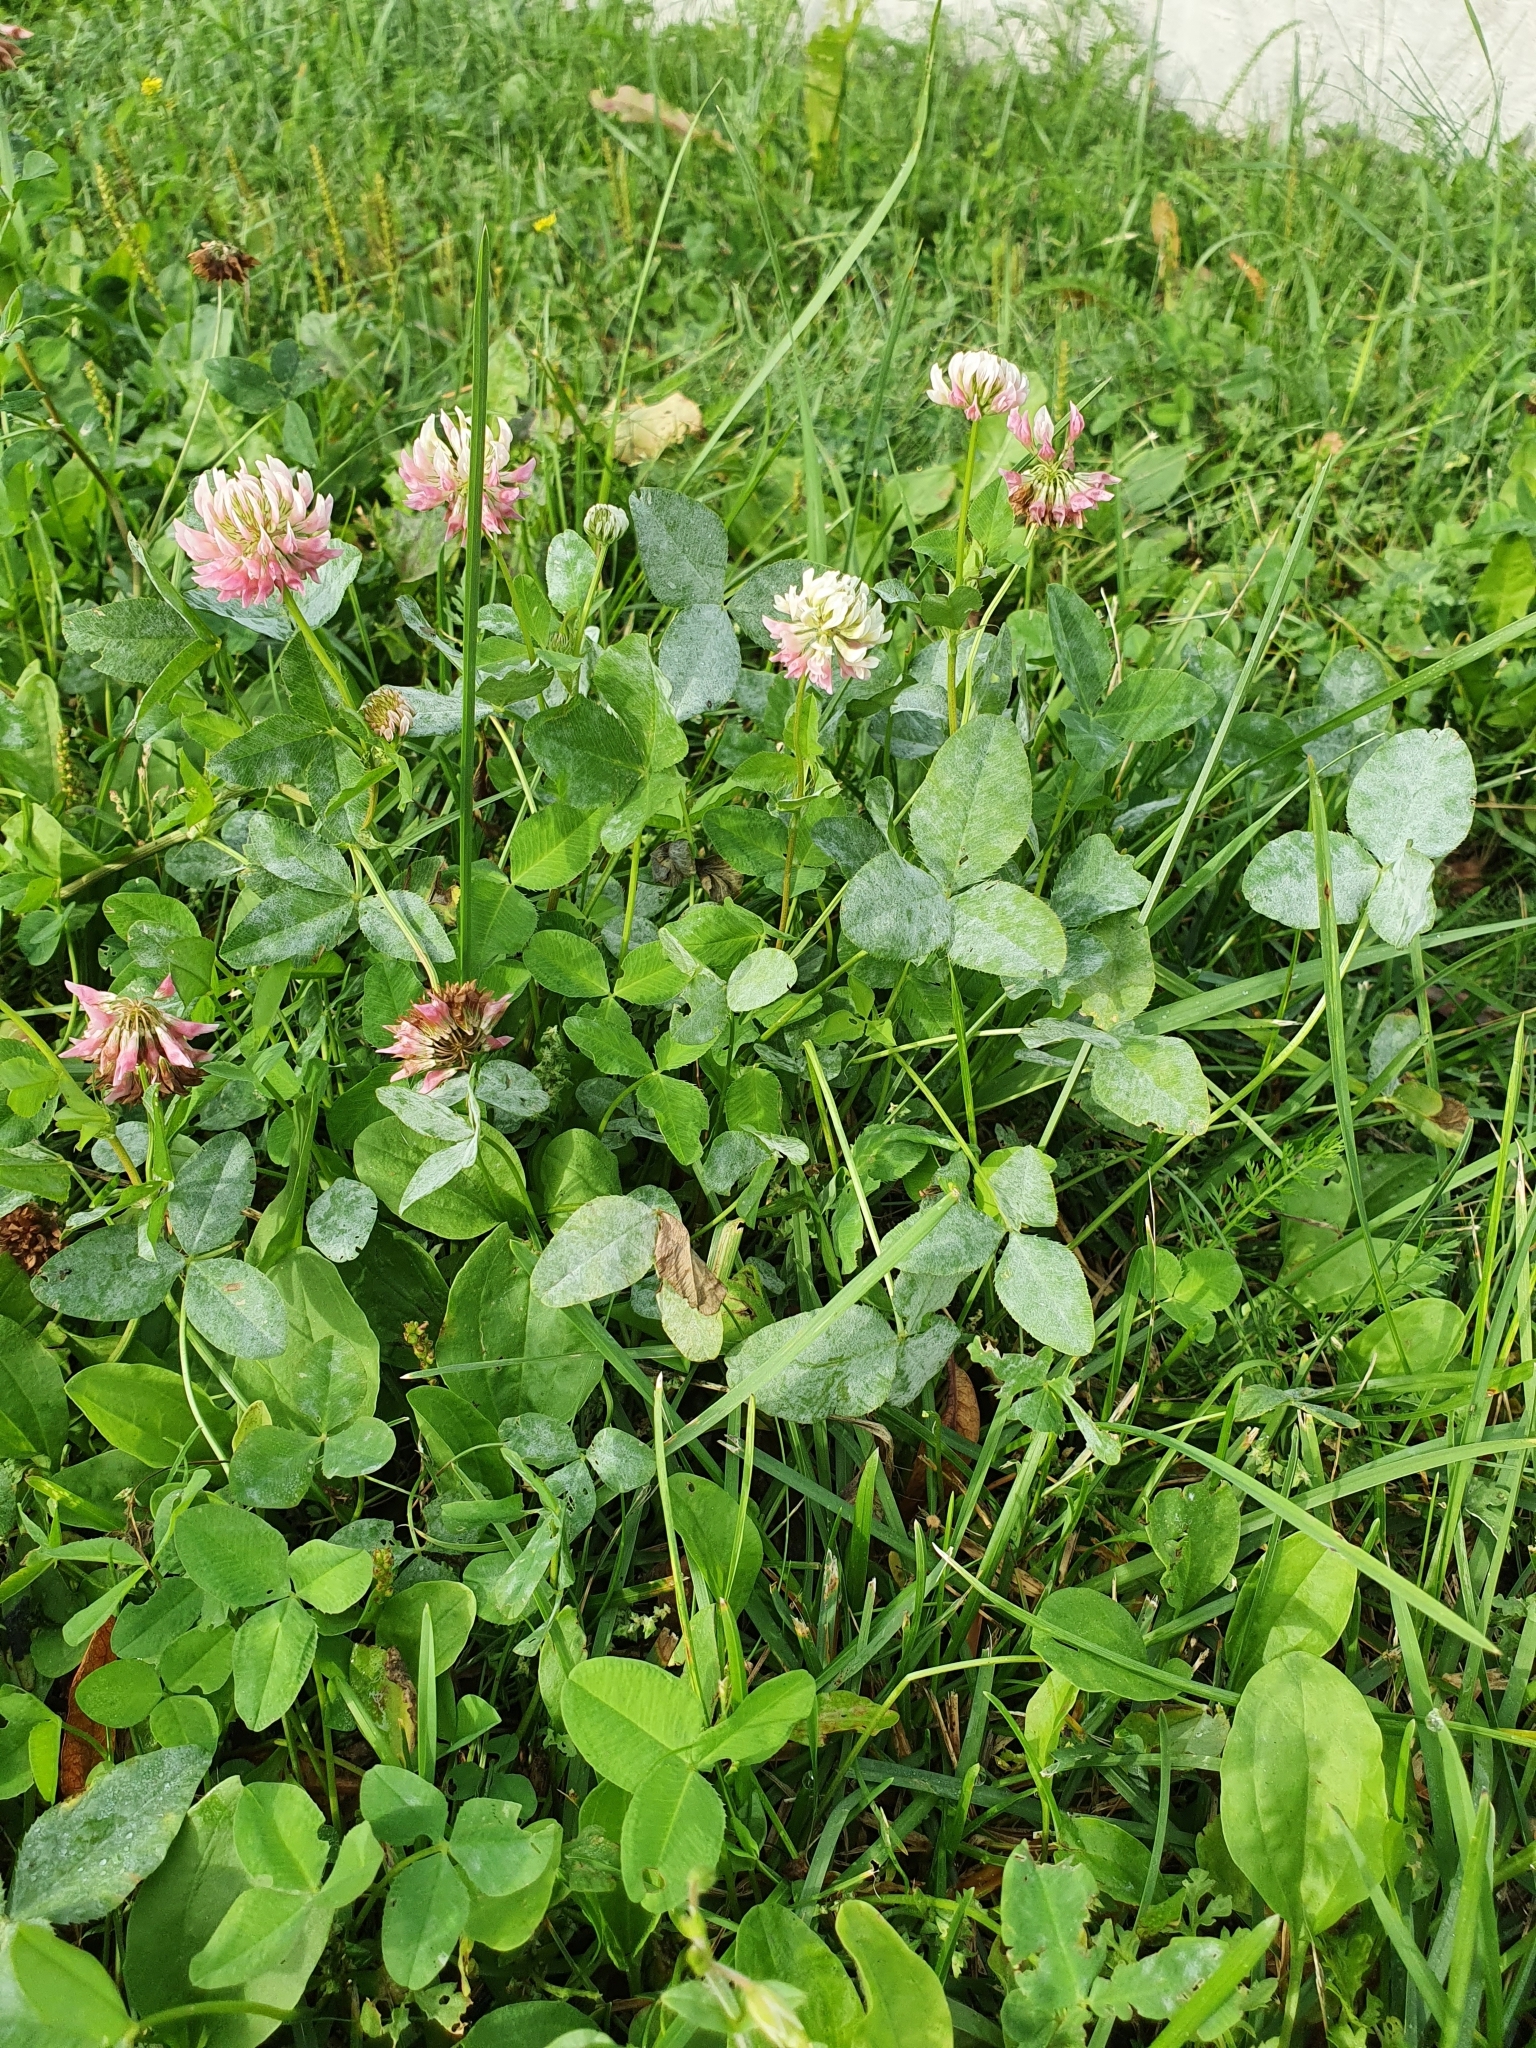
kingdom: Plantae
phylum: Tracheophyta
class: Magnoliopsida
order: Fabales
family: Fabaceae
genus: Trifolium
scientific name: Trifolium hybridum
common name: Alsike clover
